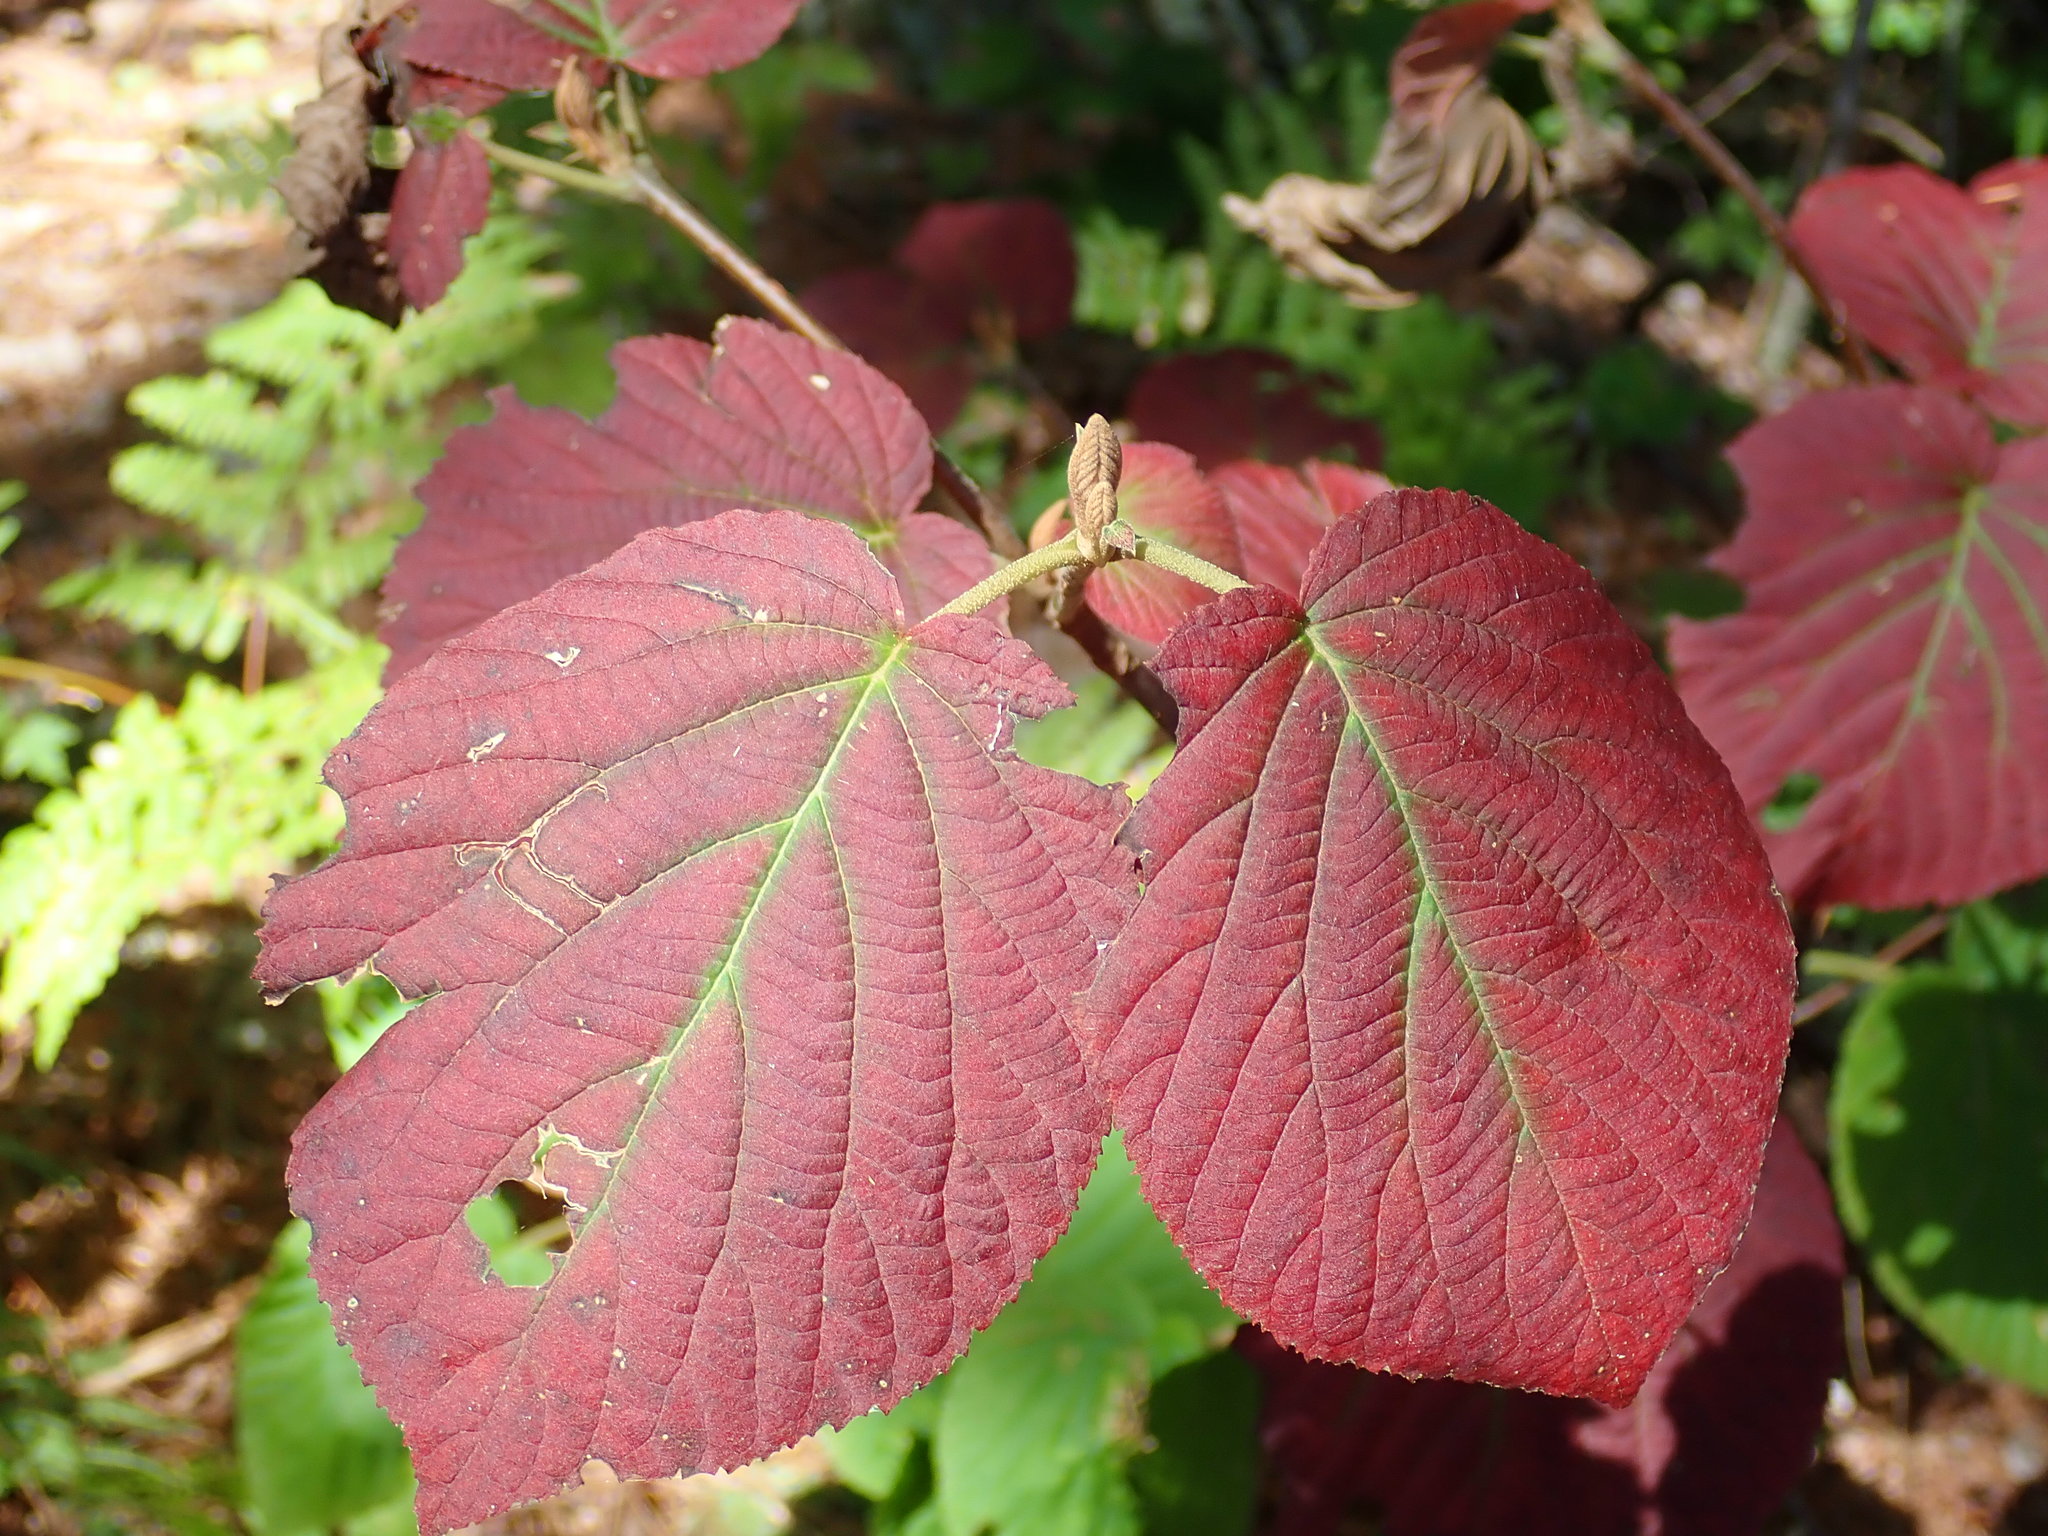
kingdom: Plantae
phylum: Tracheophyta
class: Magnoliopsida
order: Dipsacales
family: Viburnaceae
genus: Viburnum
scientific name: Viburnum lantanoides
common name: Hobblebush
